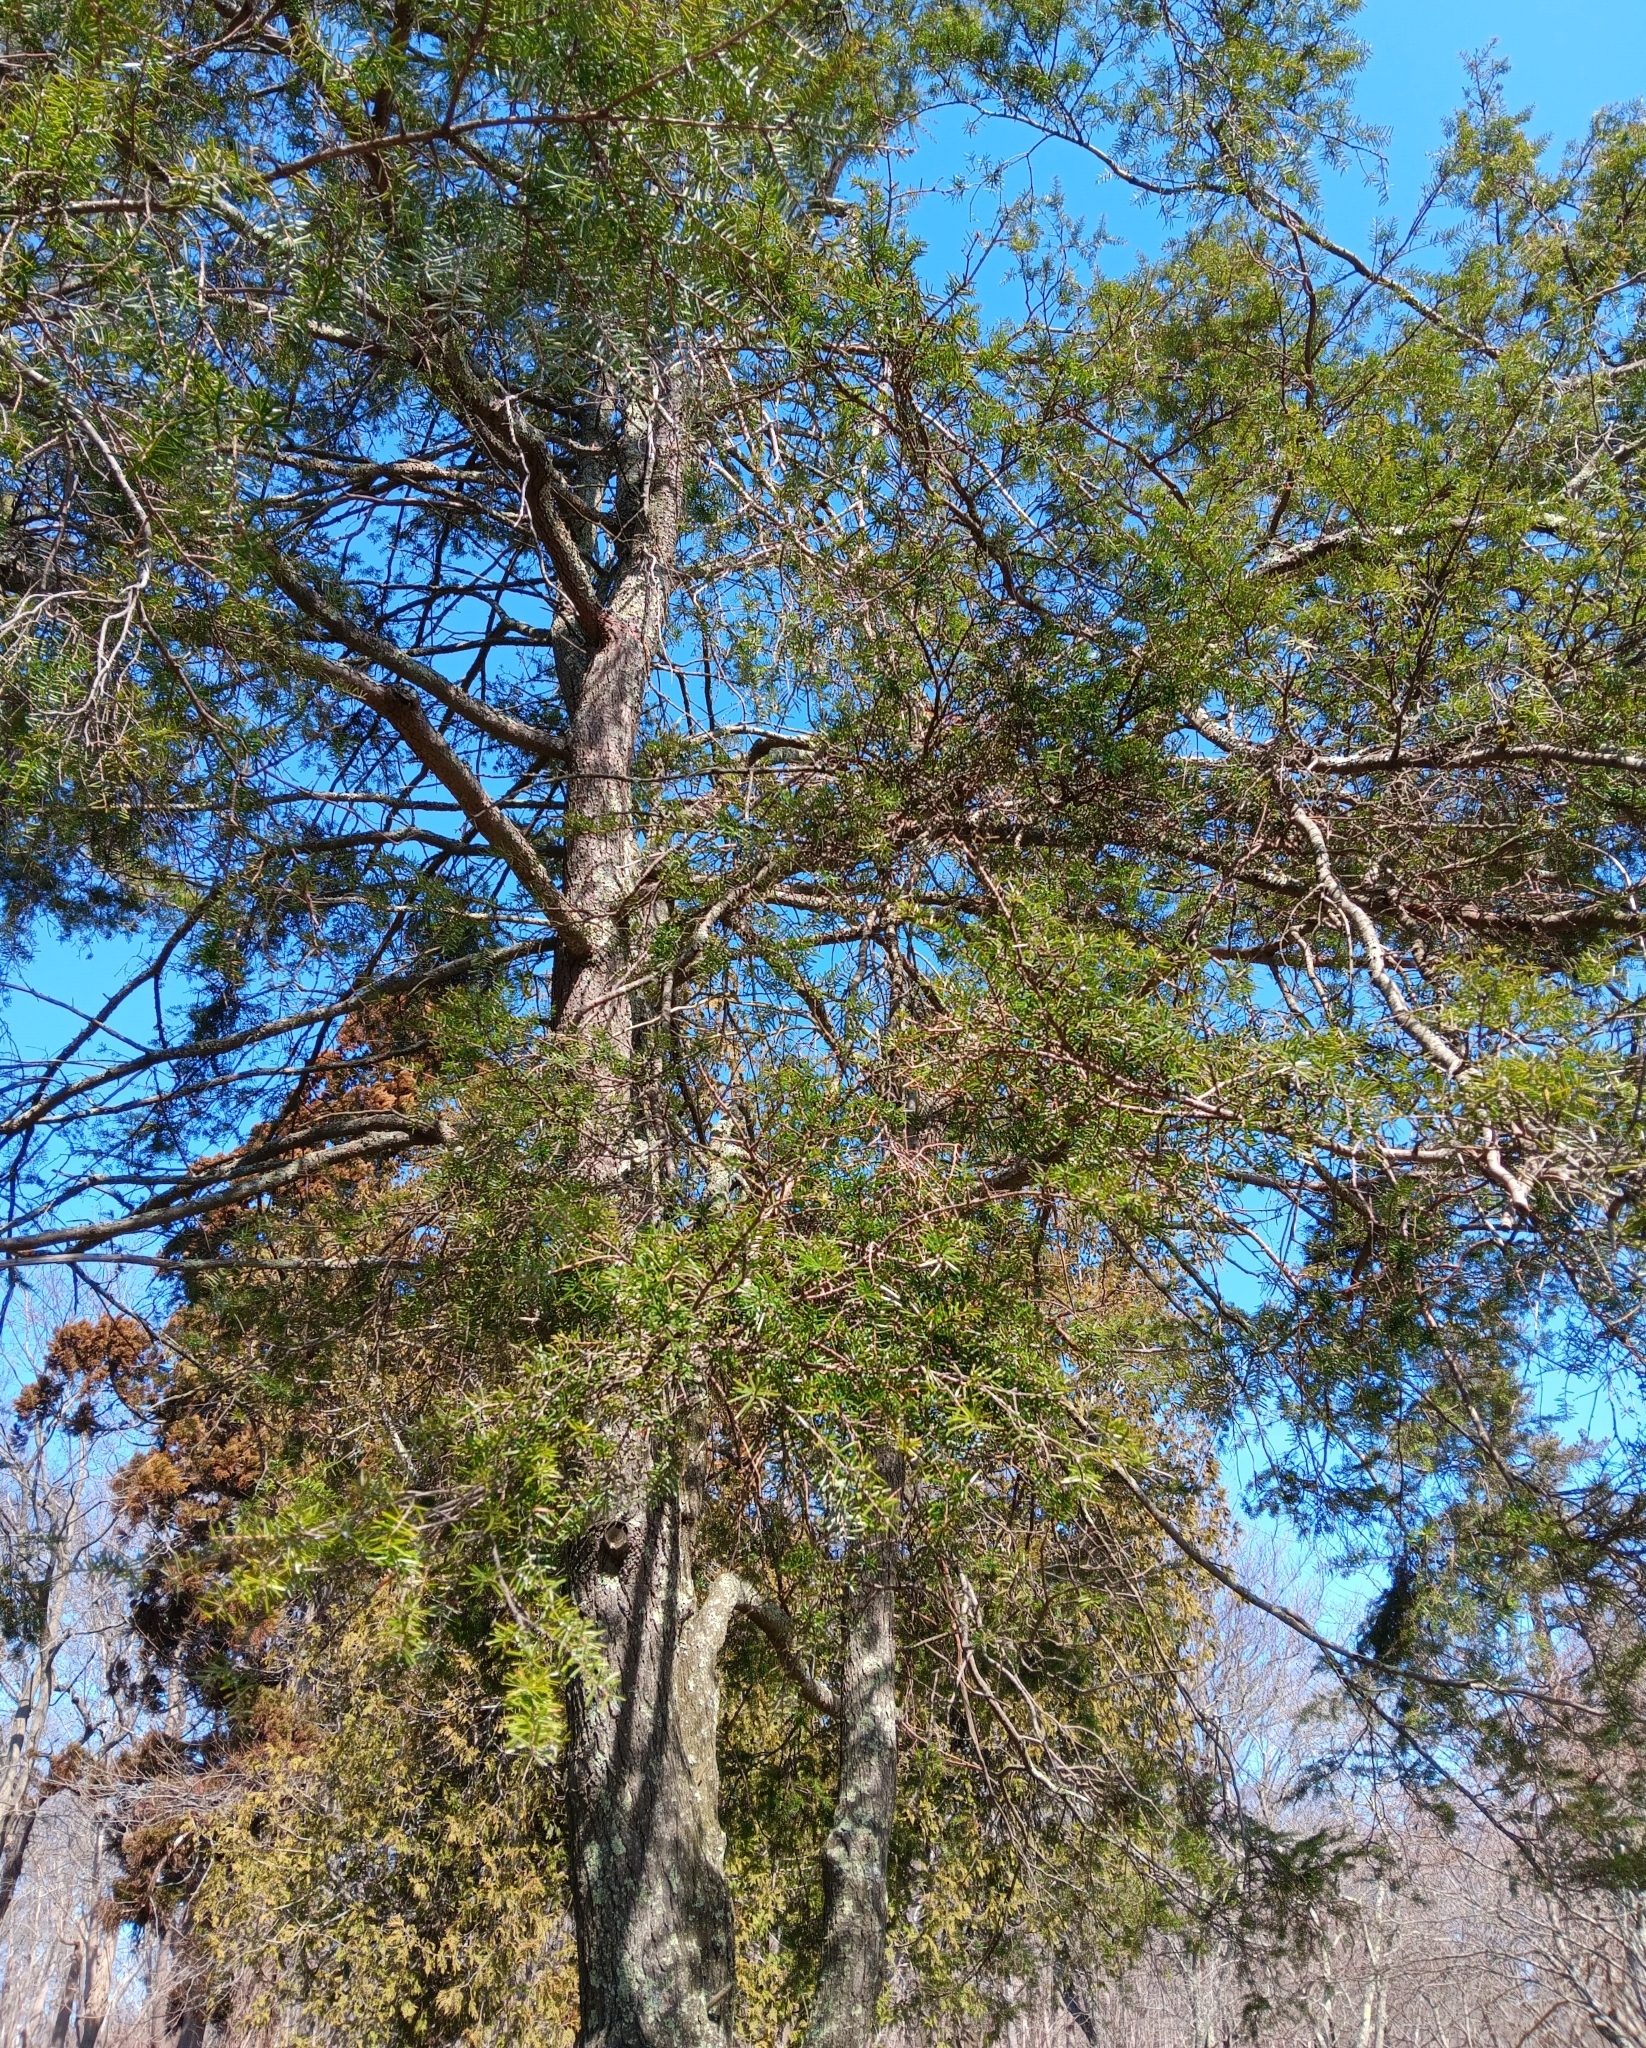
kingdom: Animalia
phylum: Arthropoda
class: Insecta
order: Hemiptera
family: Adelgidae
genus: Adelges
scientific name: Adelges tsugae
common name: Hemlock woolly adelgid
